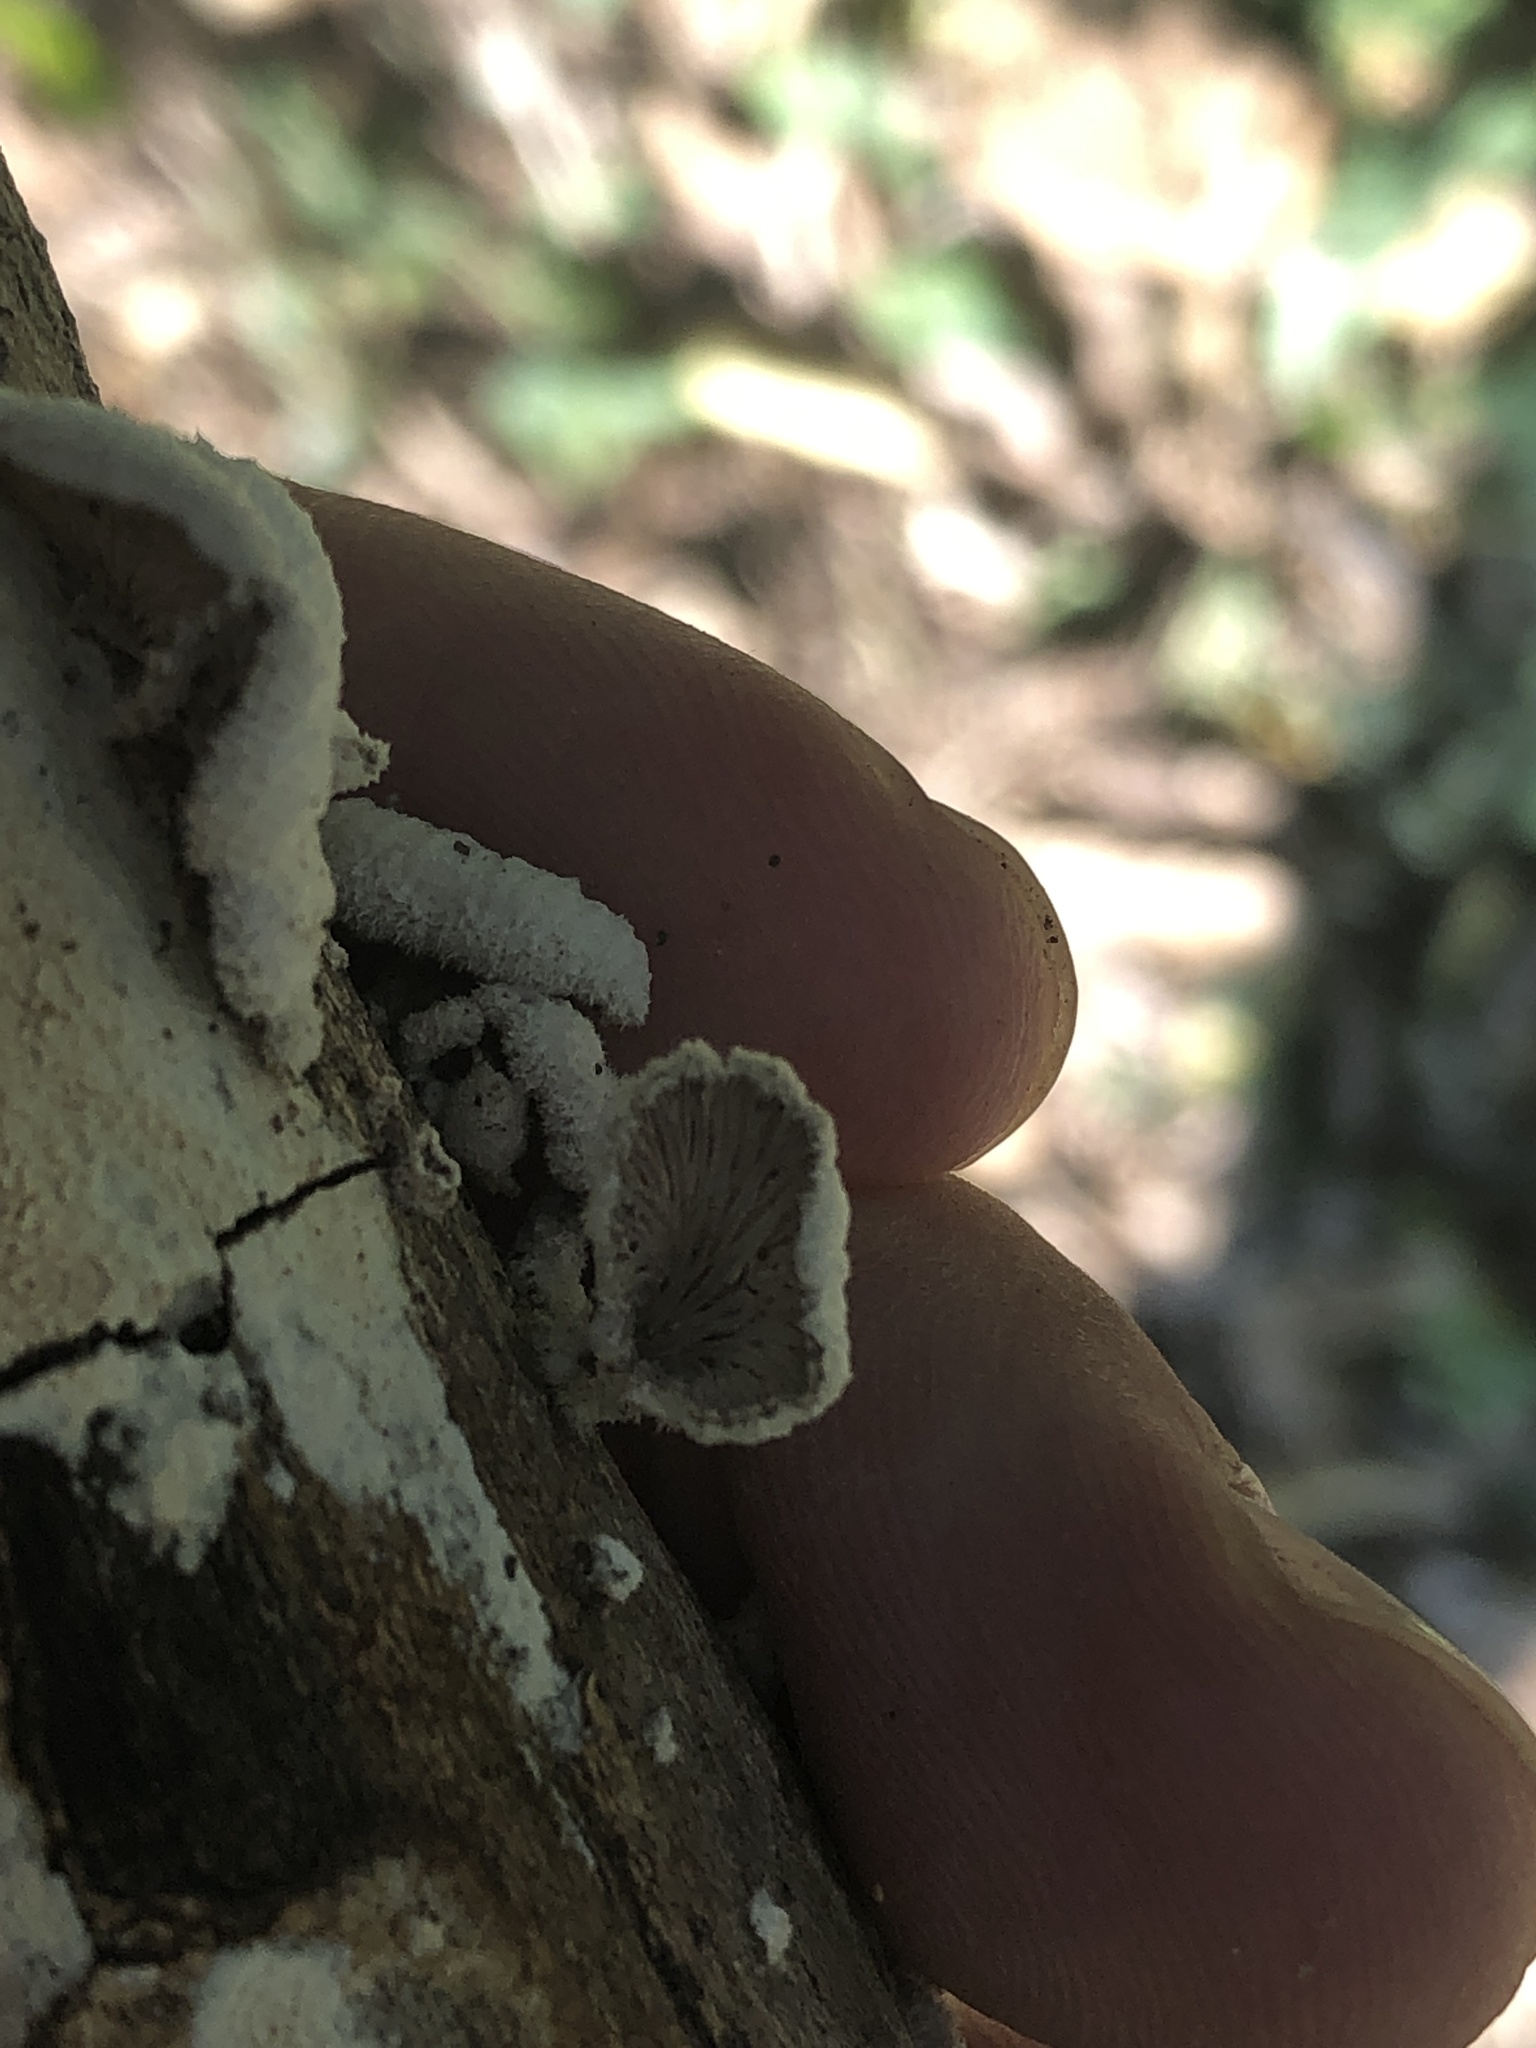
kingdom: Fungi
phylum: Basidiomycota
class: Agaricomycetes
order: Agaricales
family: Schizophyllaceae
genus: Schizophyllum
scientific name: Schizophyllum commune
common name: Common porecrust
